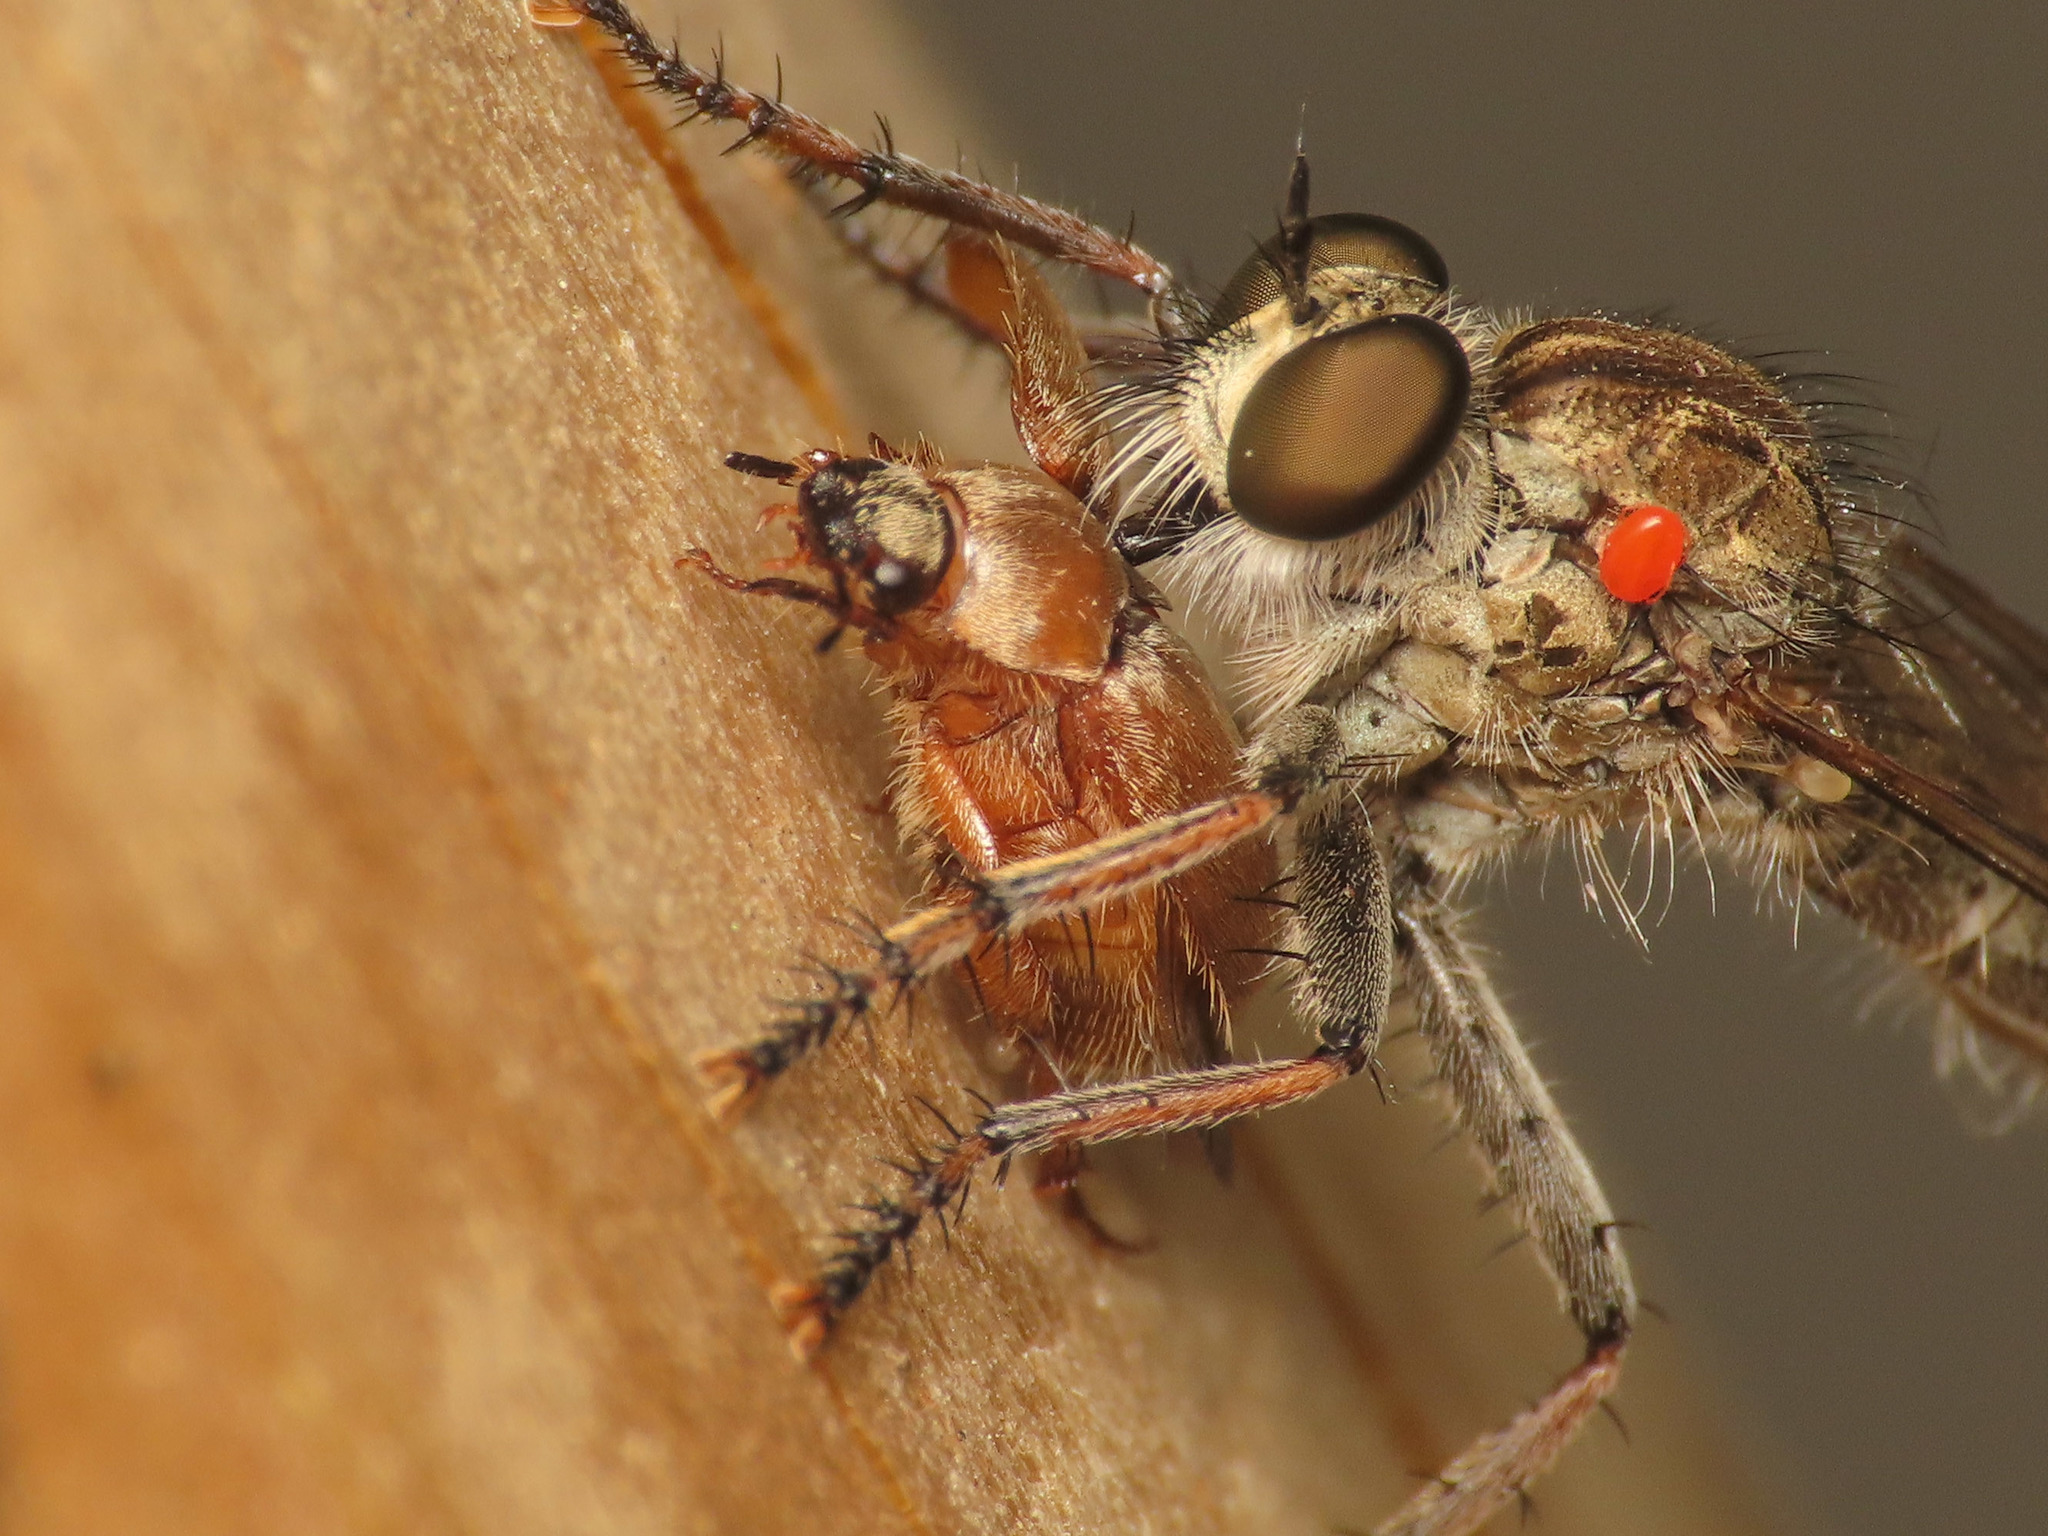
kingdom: Animalia
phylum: Arthropoda
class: Insecta
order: Coleoptera
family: Scarabaeidae
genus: Triodontella
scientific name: Triodontella nitidula
